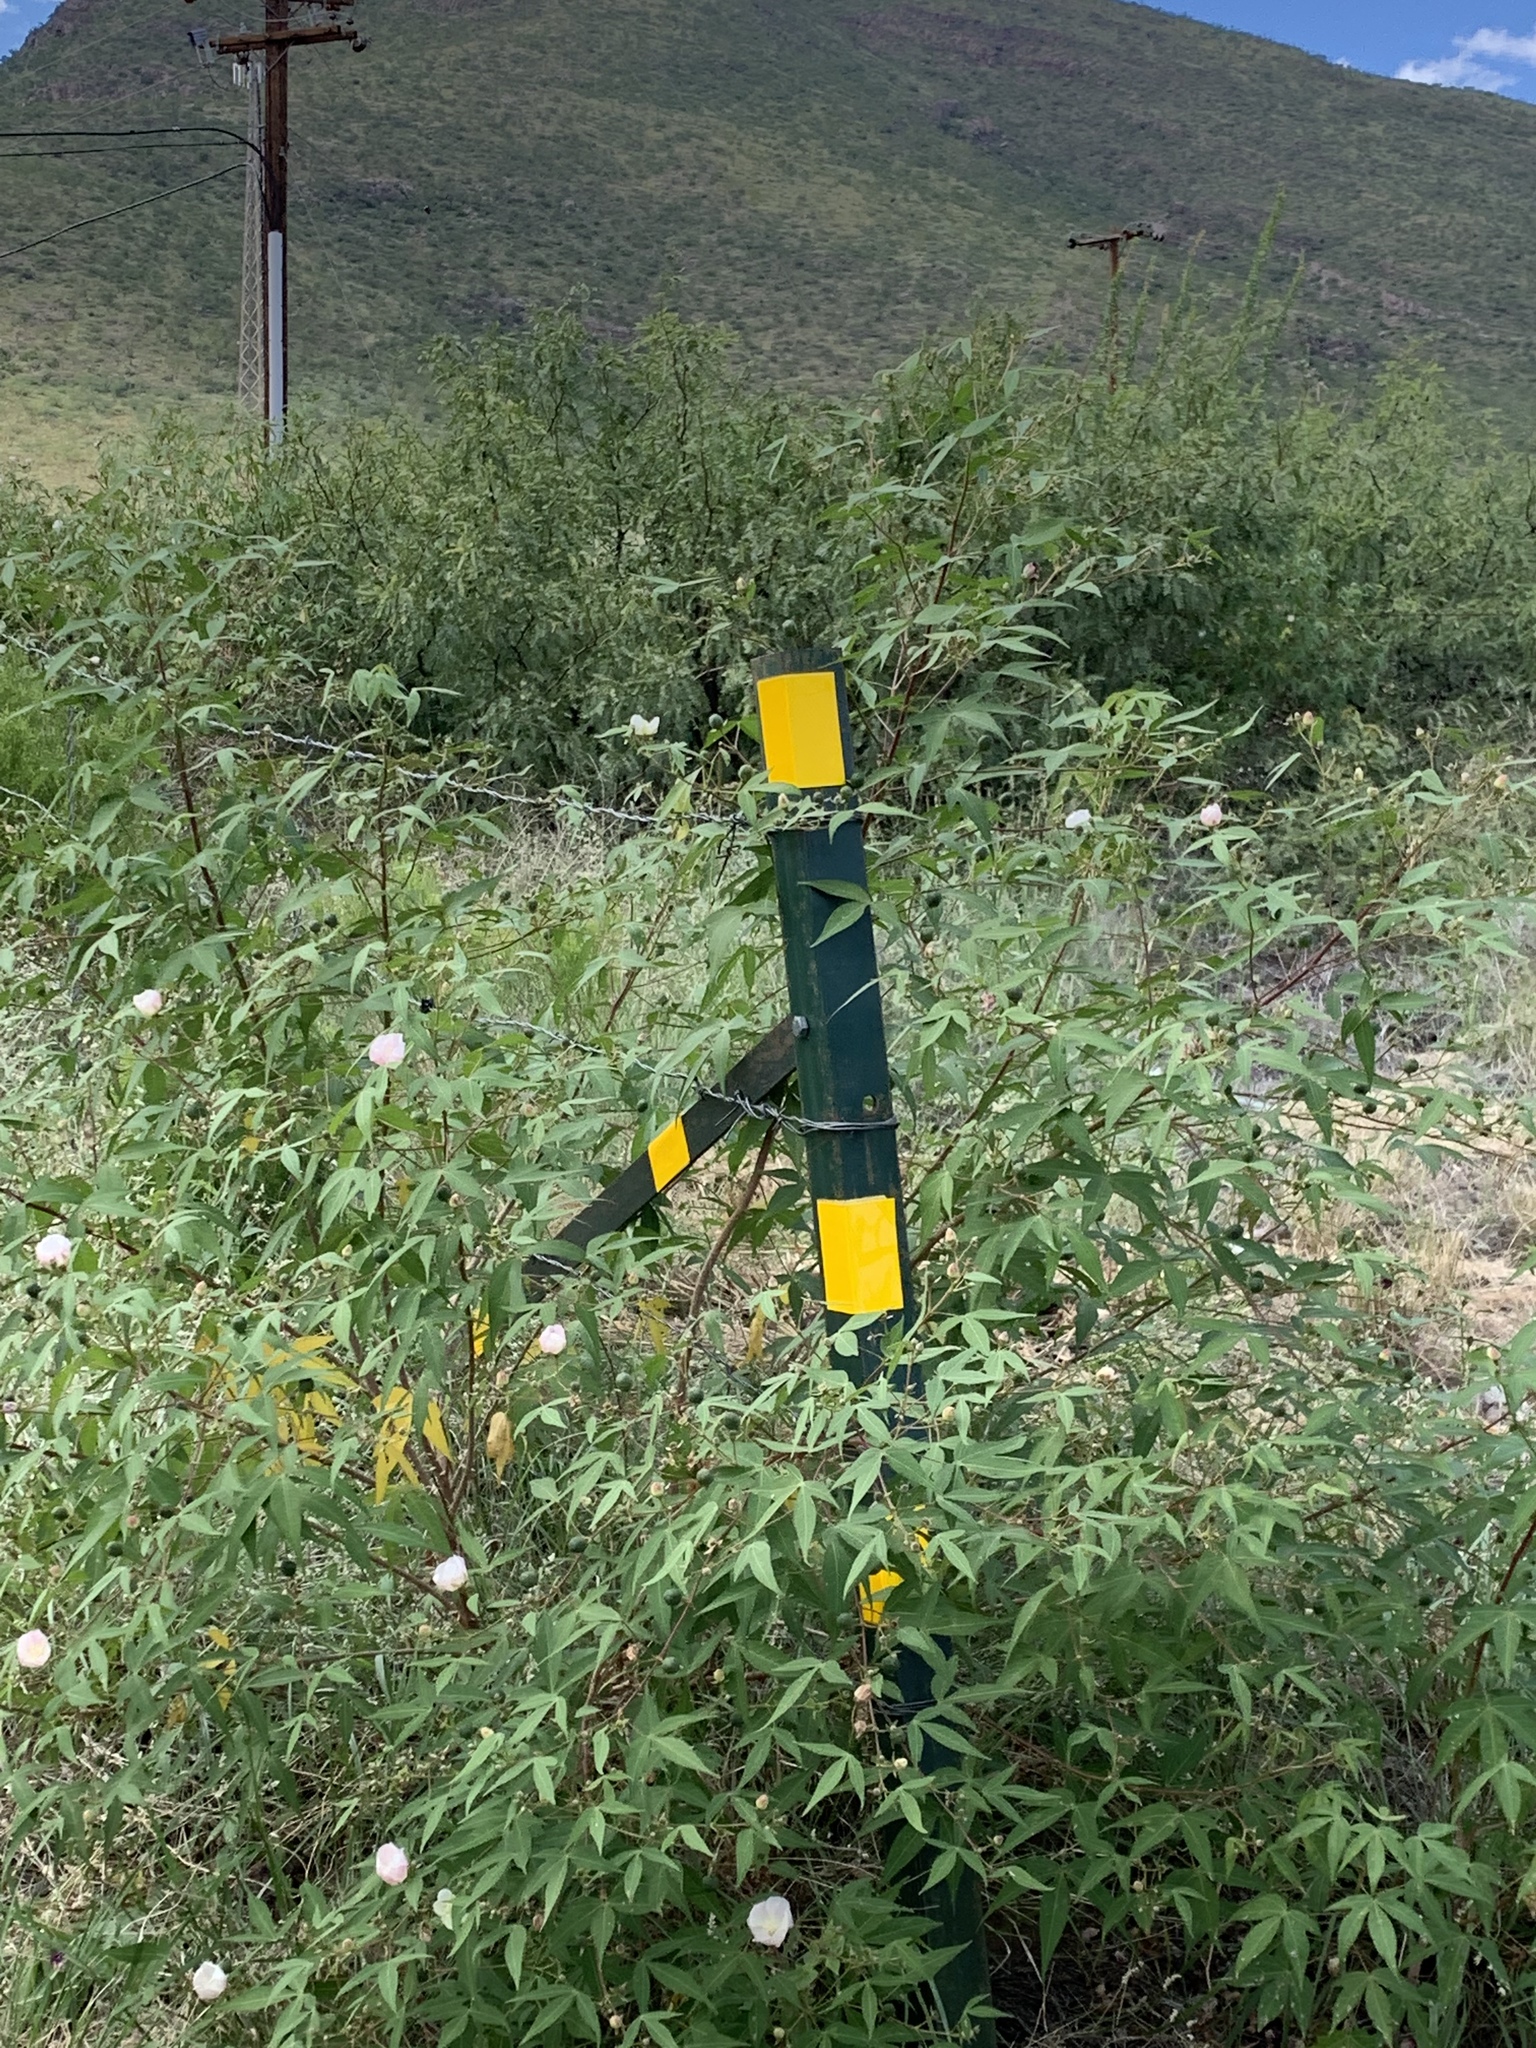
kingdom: Plantae
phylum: Tracheophyta
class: Magnoliopsida
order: Malvales
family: Malvaceae
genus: Gossypium
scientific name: Gossypium thurberi
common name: Desert cotton
